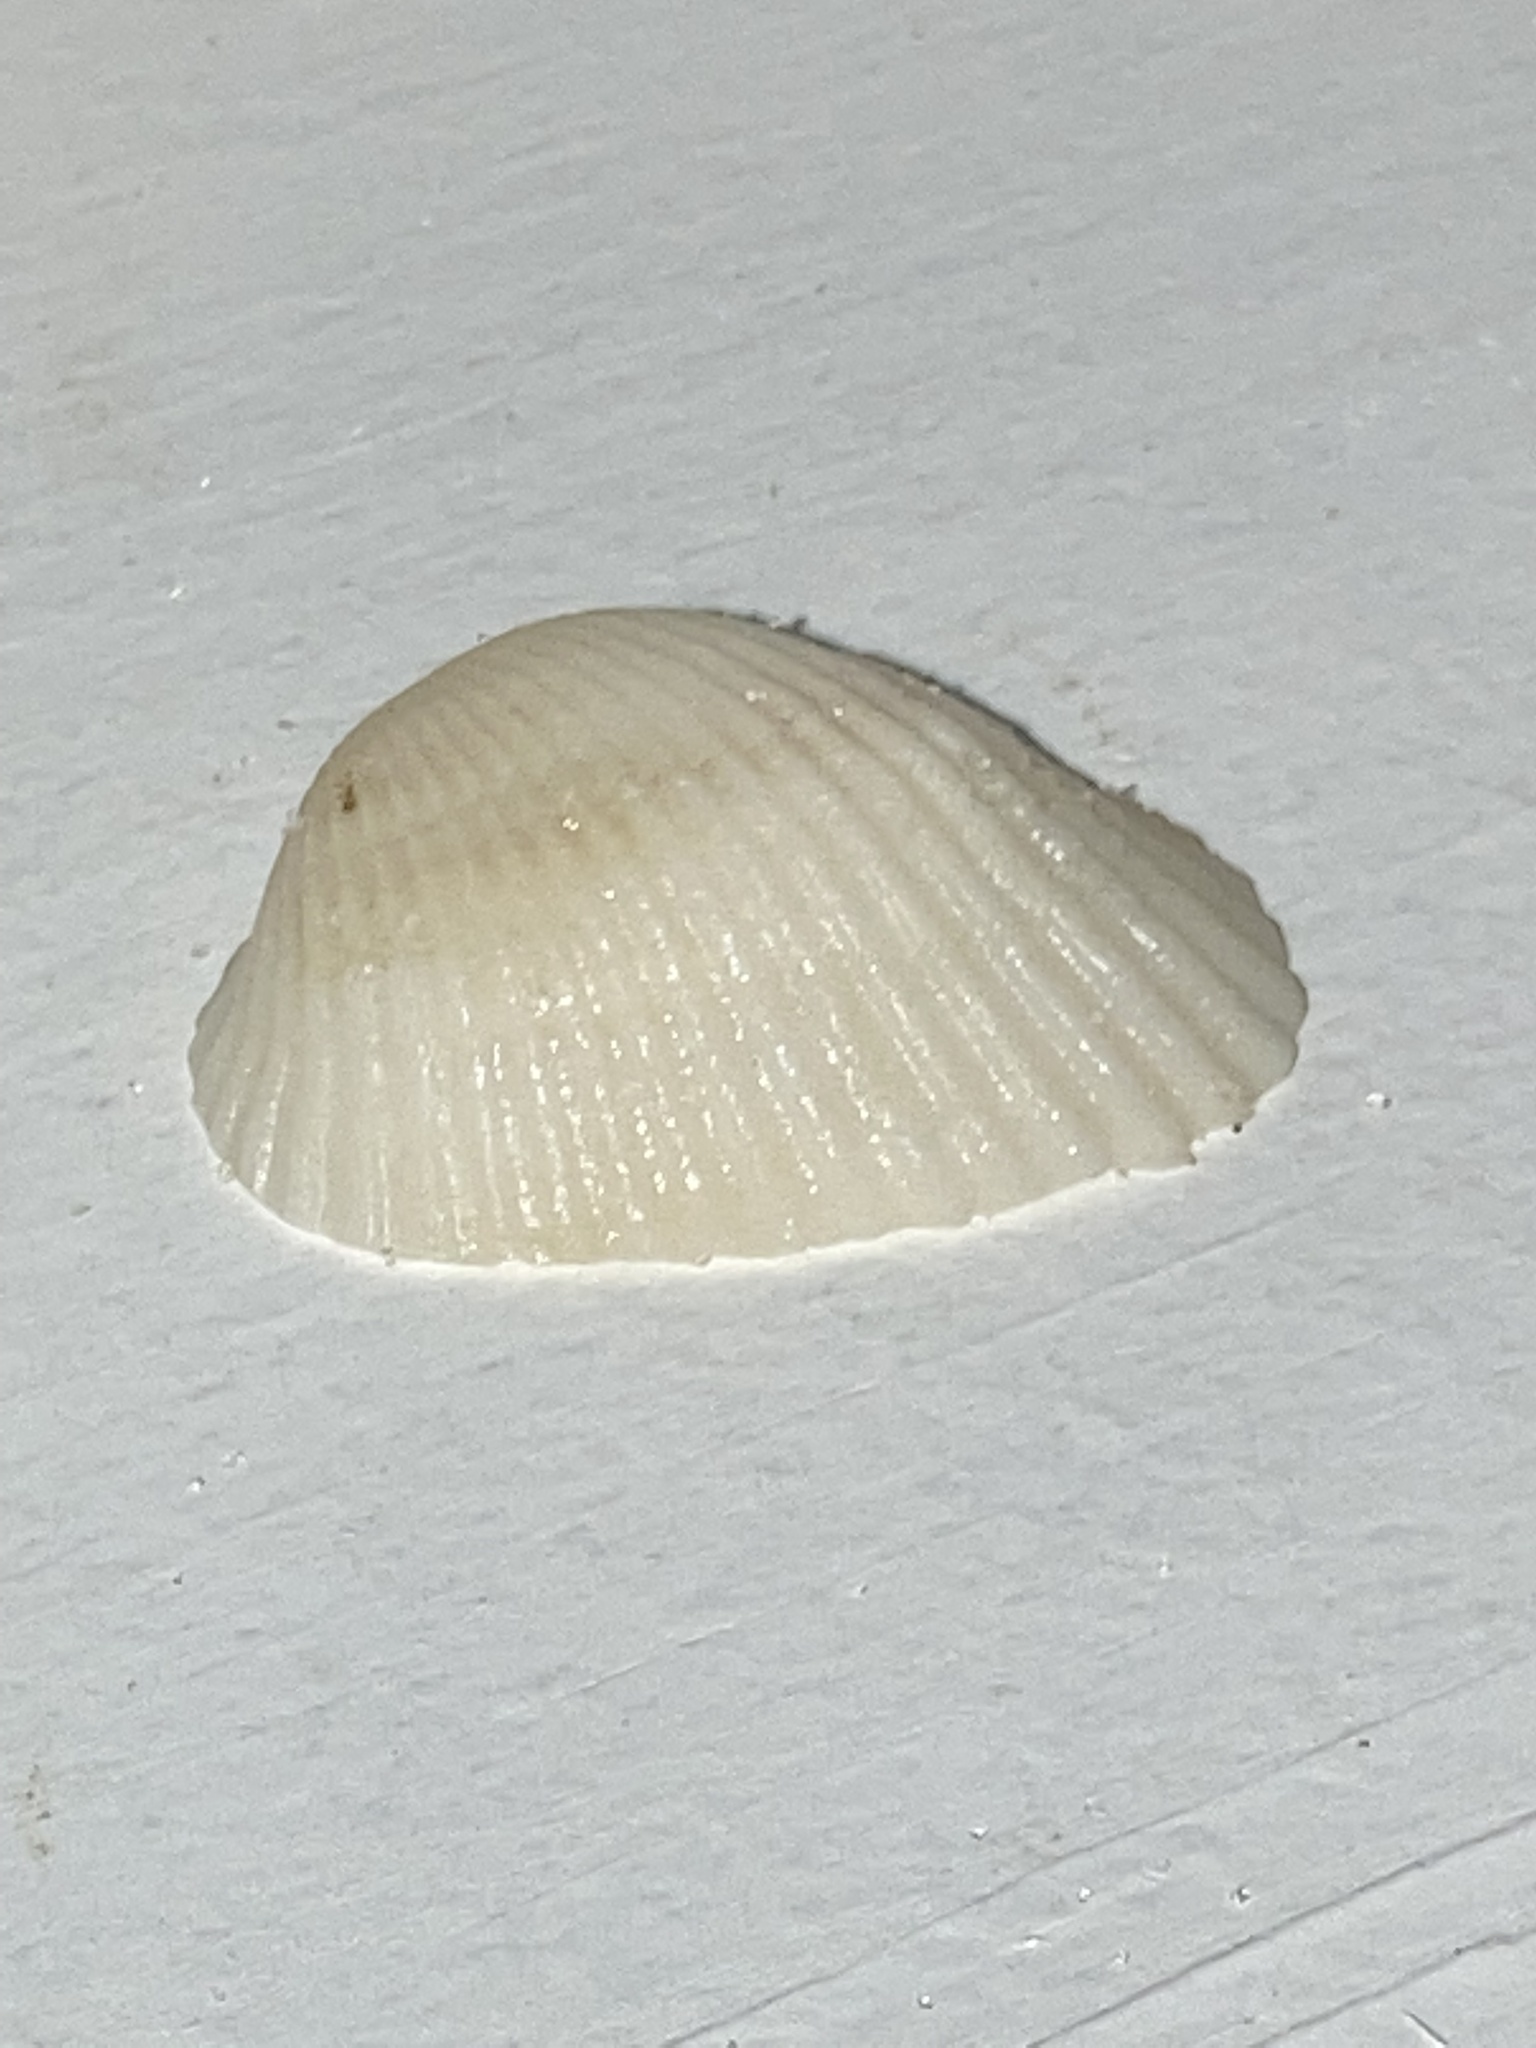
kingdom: Animalia
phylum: Mollusca
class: Bivalvia
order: Arcida
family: Arcidae
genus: Anadara
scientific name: Anadara transversa
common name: Transverse ark
